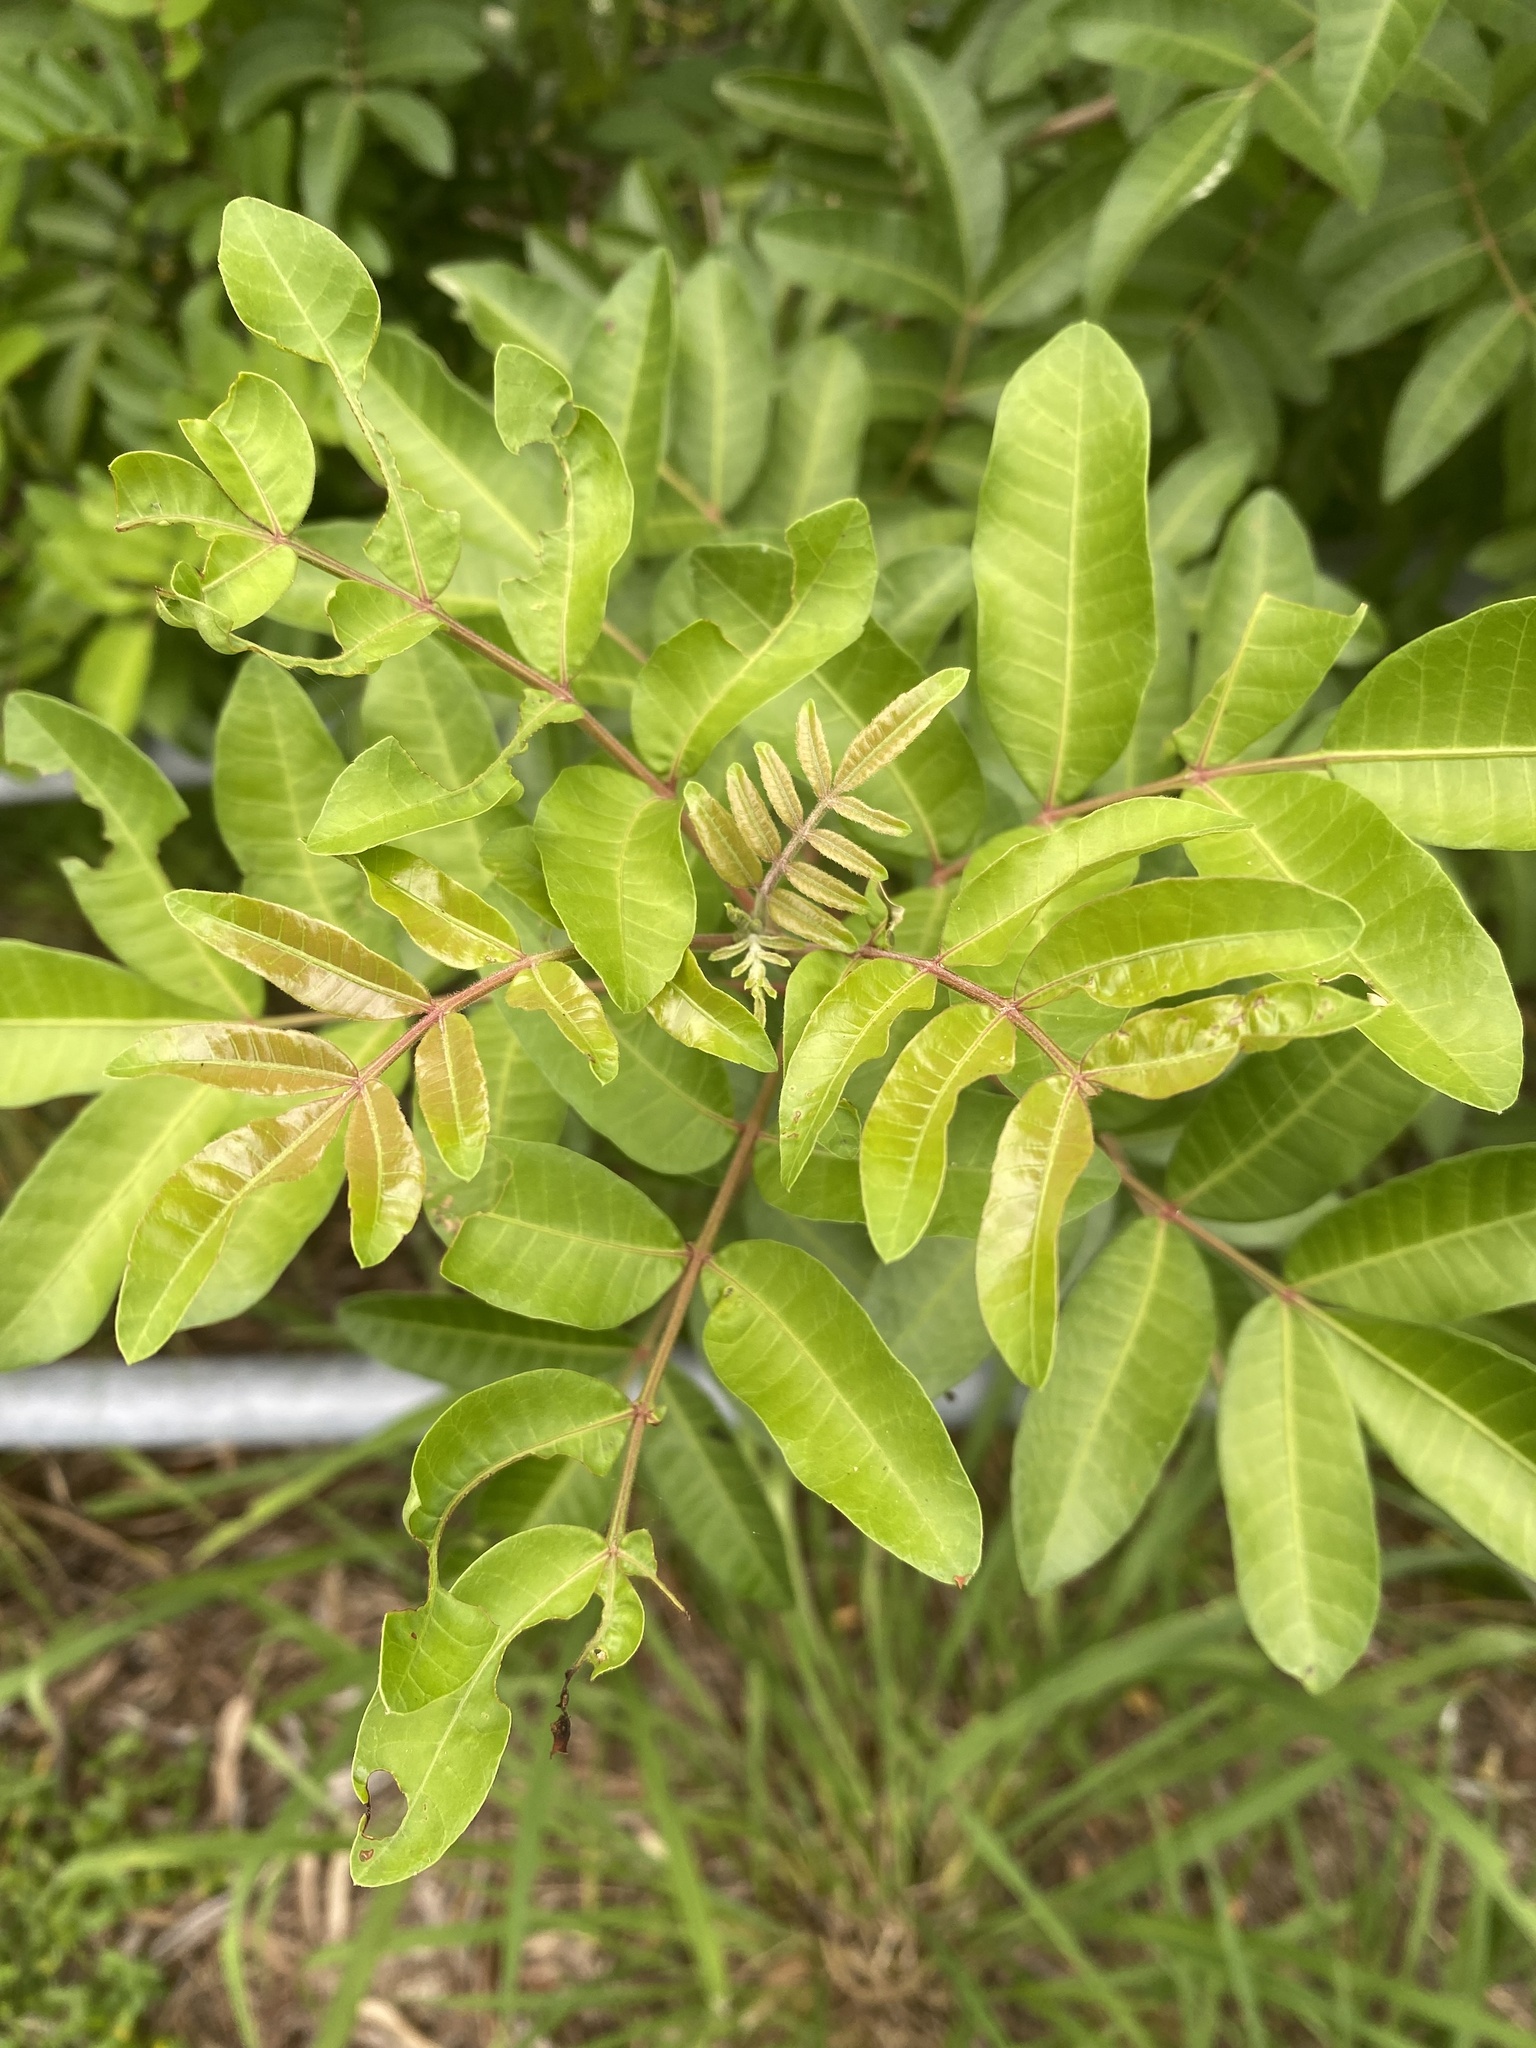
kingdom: Plantae
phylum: Tracheophyta
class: Magnoliopsida
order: Sapindales
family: Anacardiaceae
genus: Schinus
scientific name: Schinus terebinthifolia
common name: Brazilian peppertree
